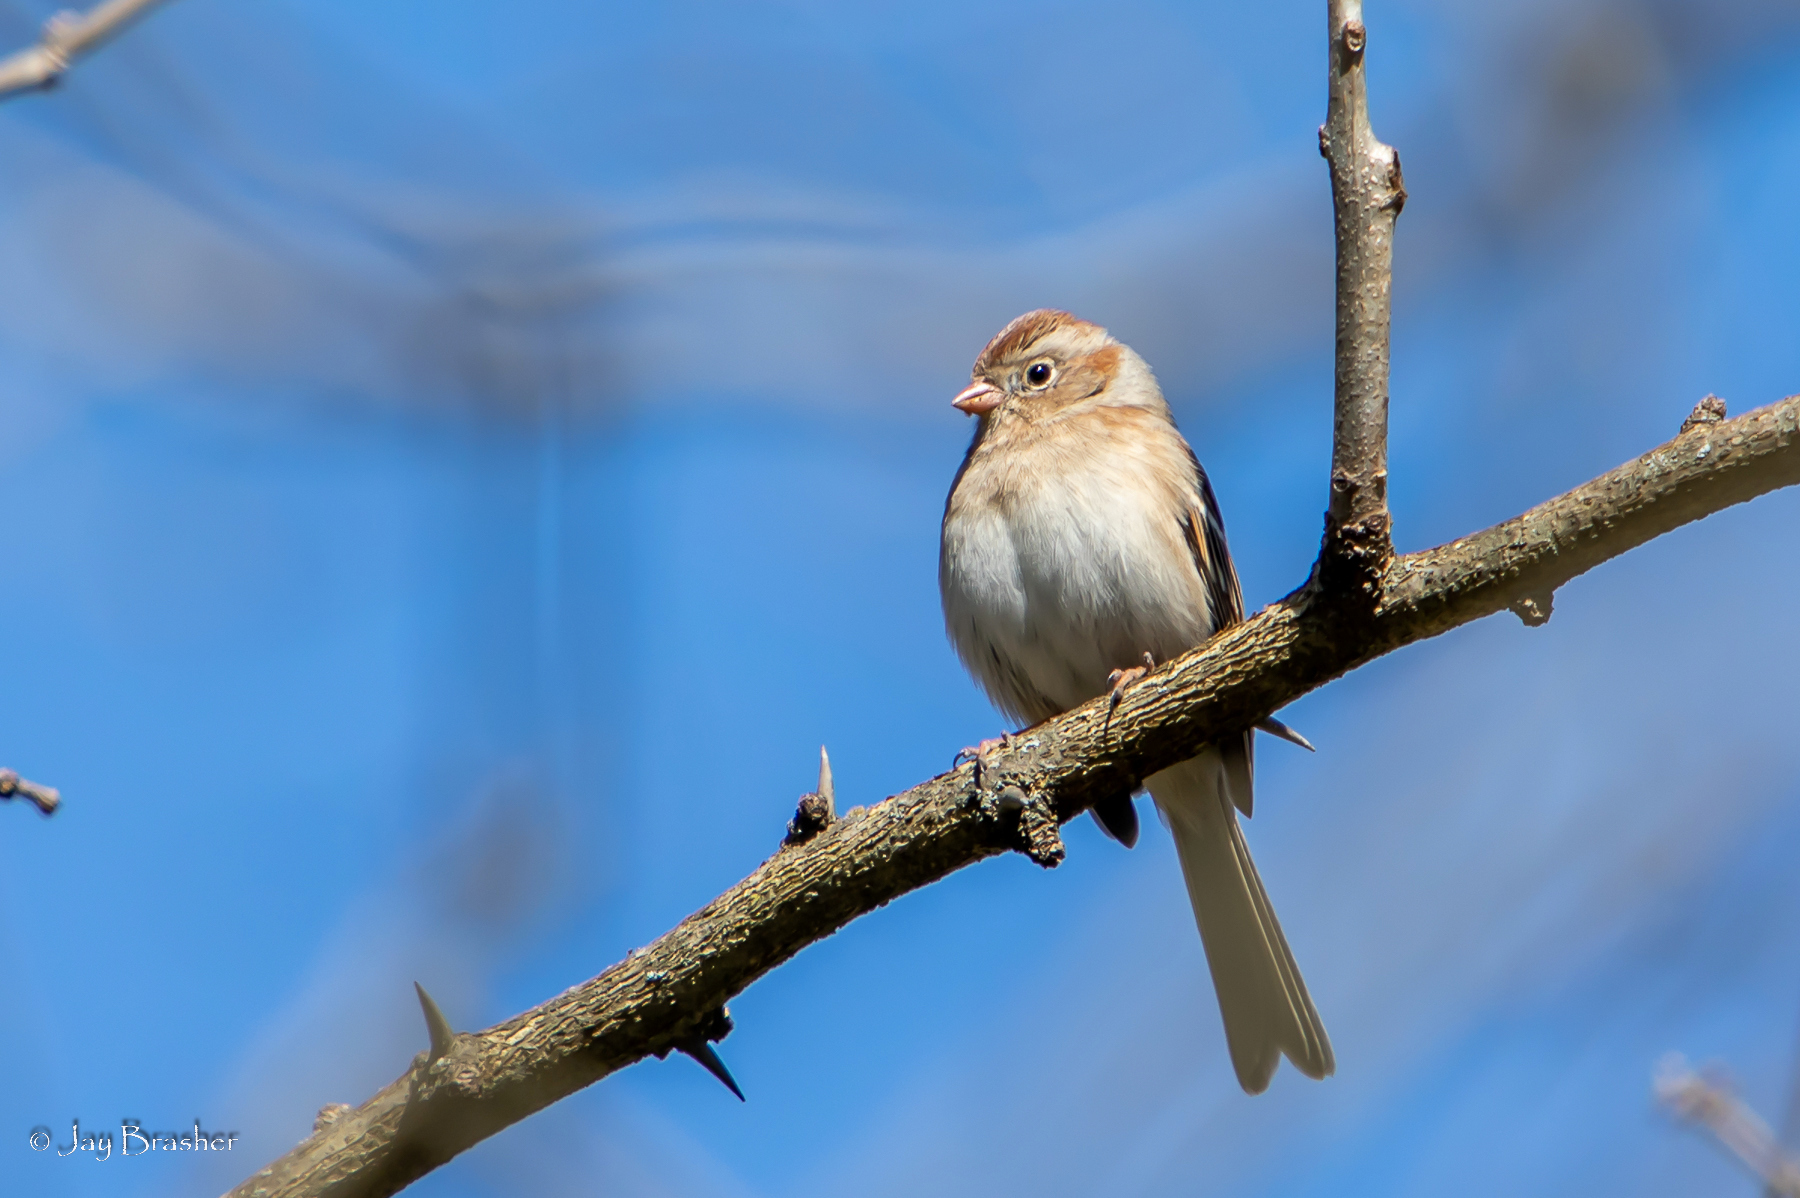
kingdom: Animalia
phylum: Chordata
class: Aves
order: Passeriformes
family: Passerellidae
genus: Spizella
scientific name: Spizella pusilla
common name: Field sparrow
